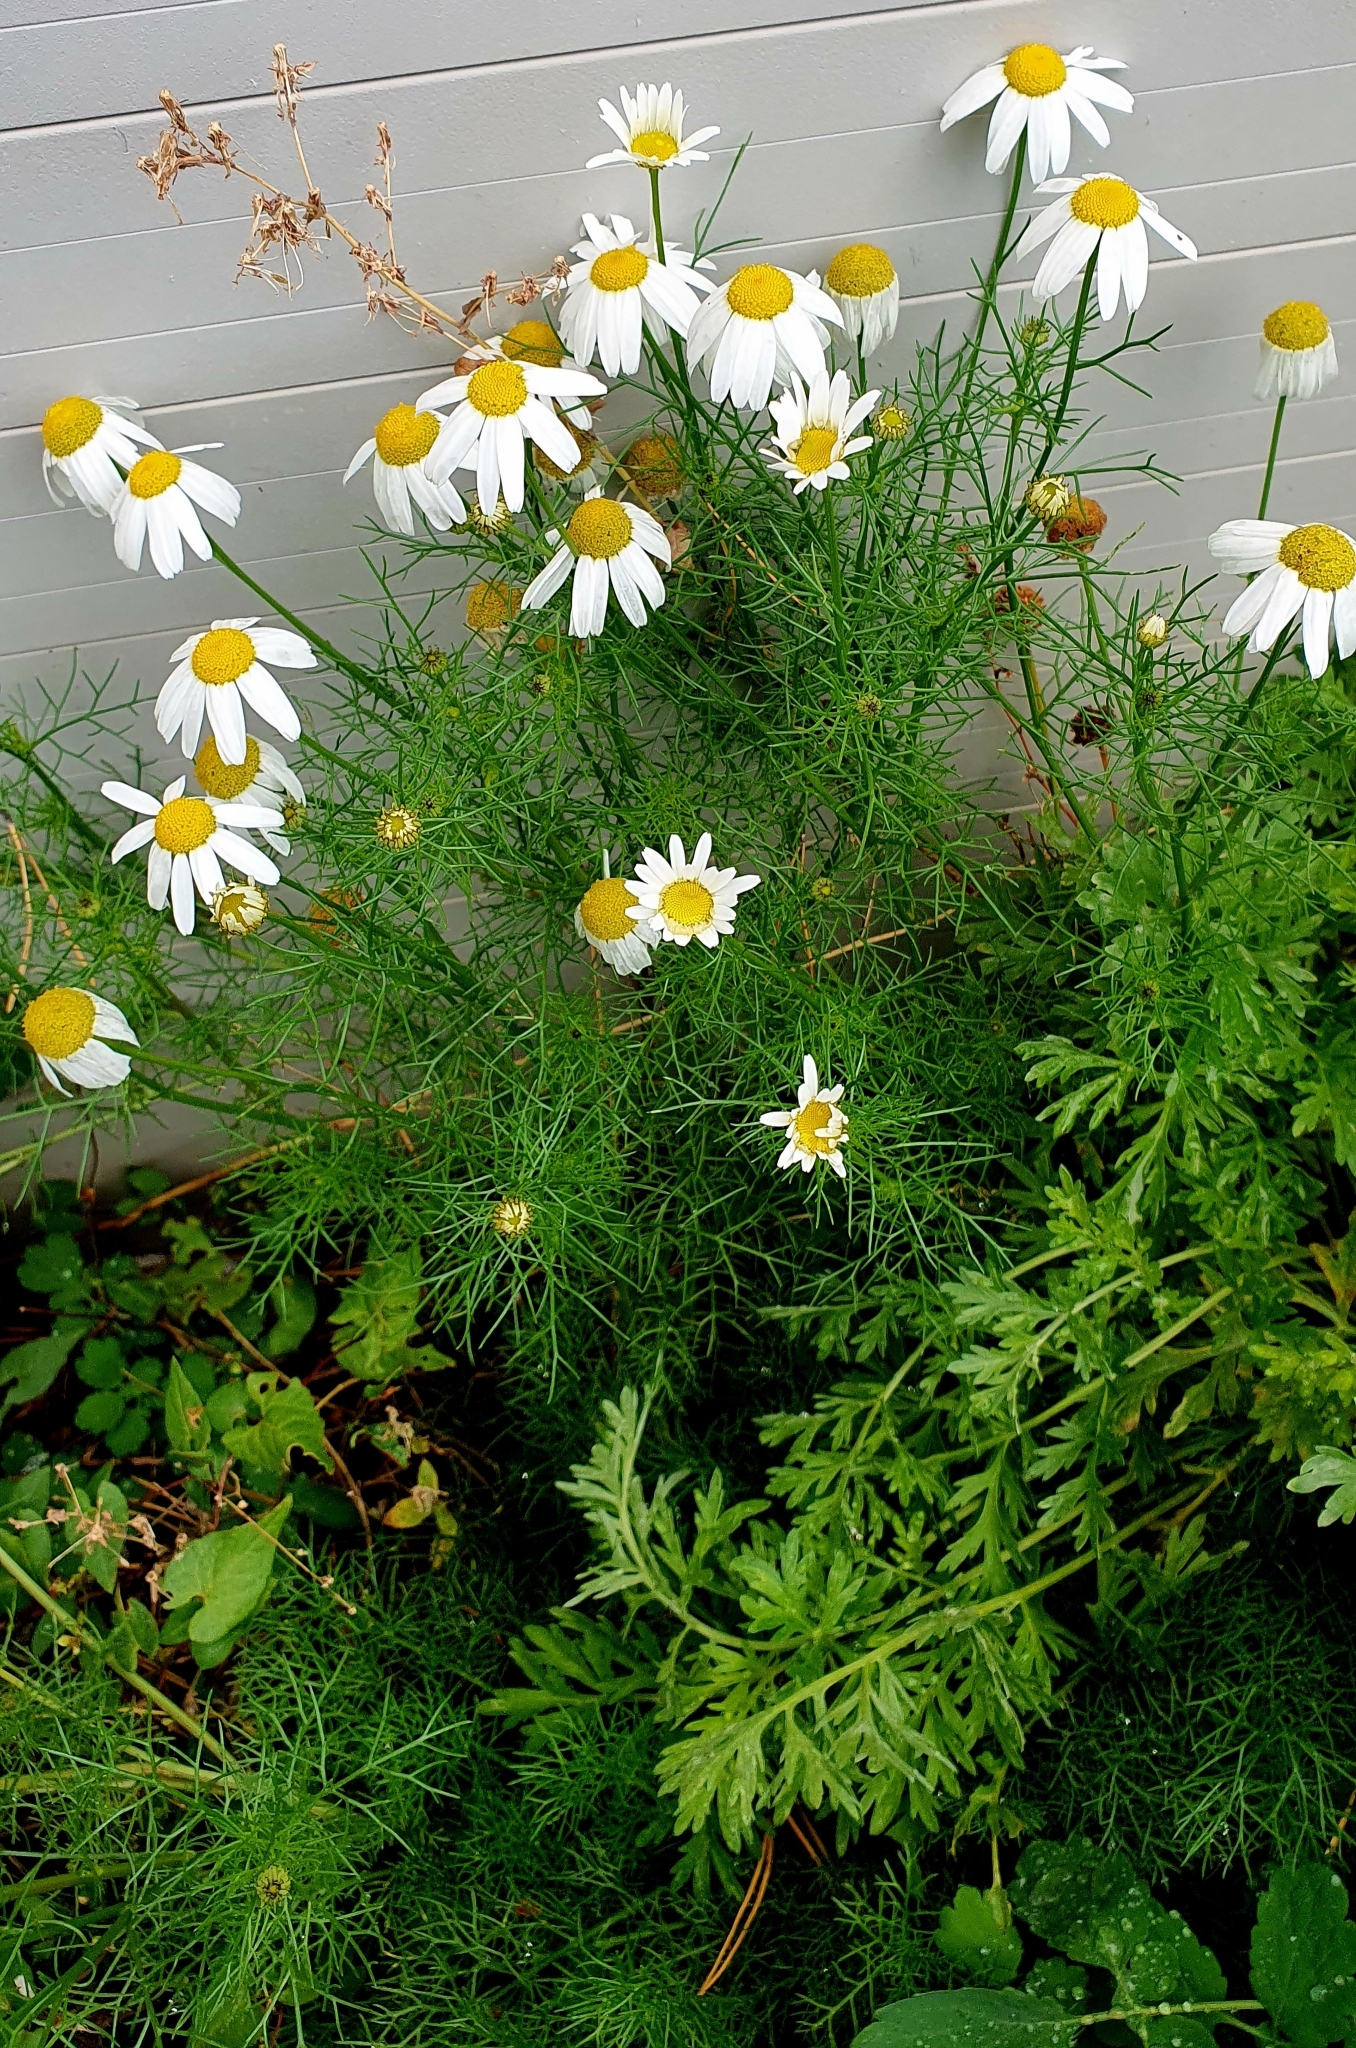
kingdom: Plantae
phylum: Tracheophyta
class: Magnoliopsida
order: Asterales
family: Asteraceae
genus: Tripleurospermum
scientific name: Tripleurospermum inodorum
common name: Scentless mayweed
